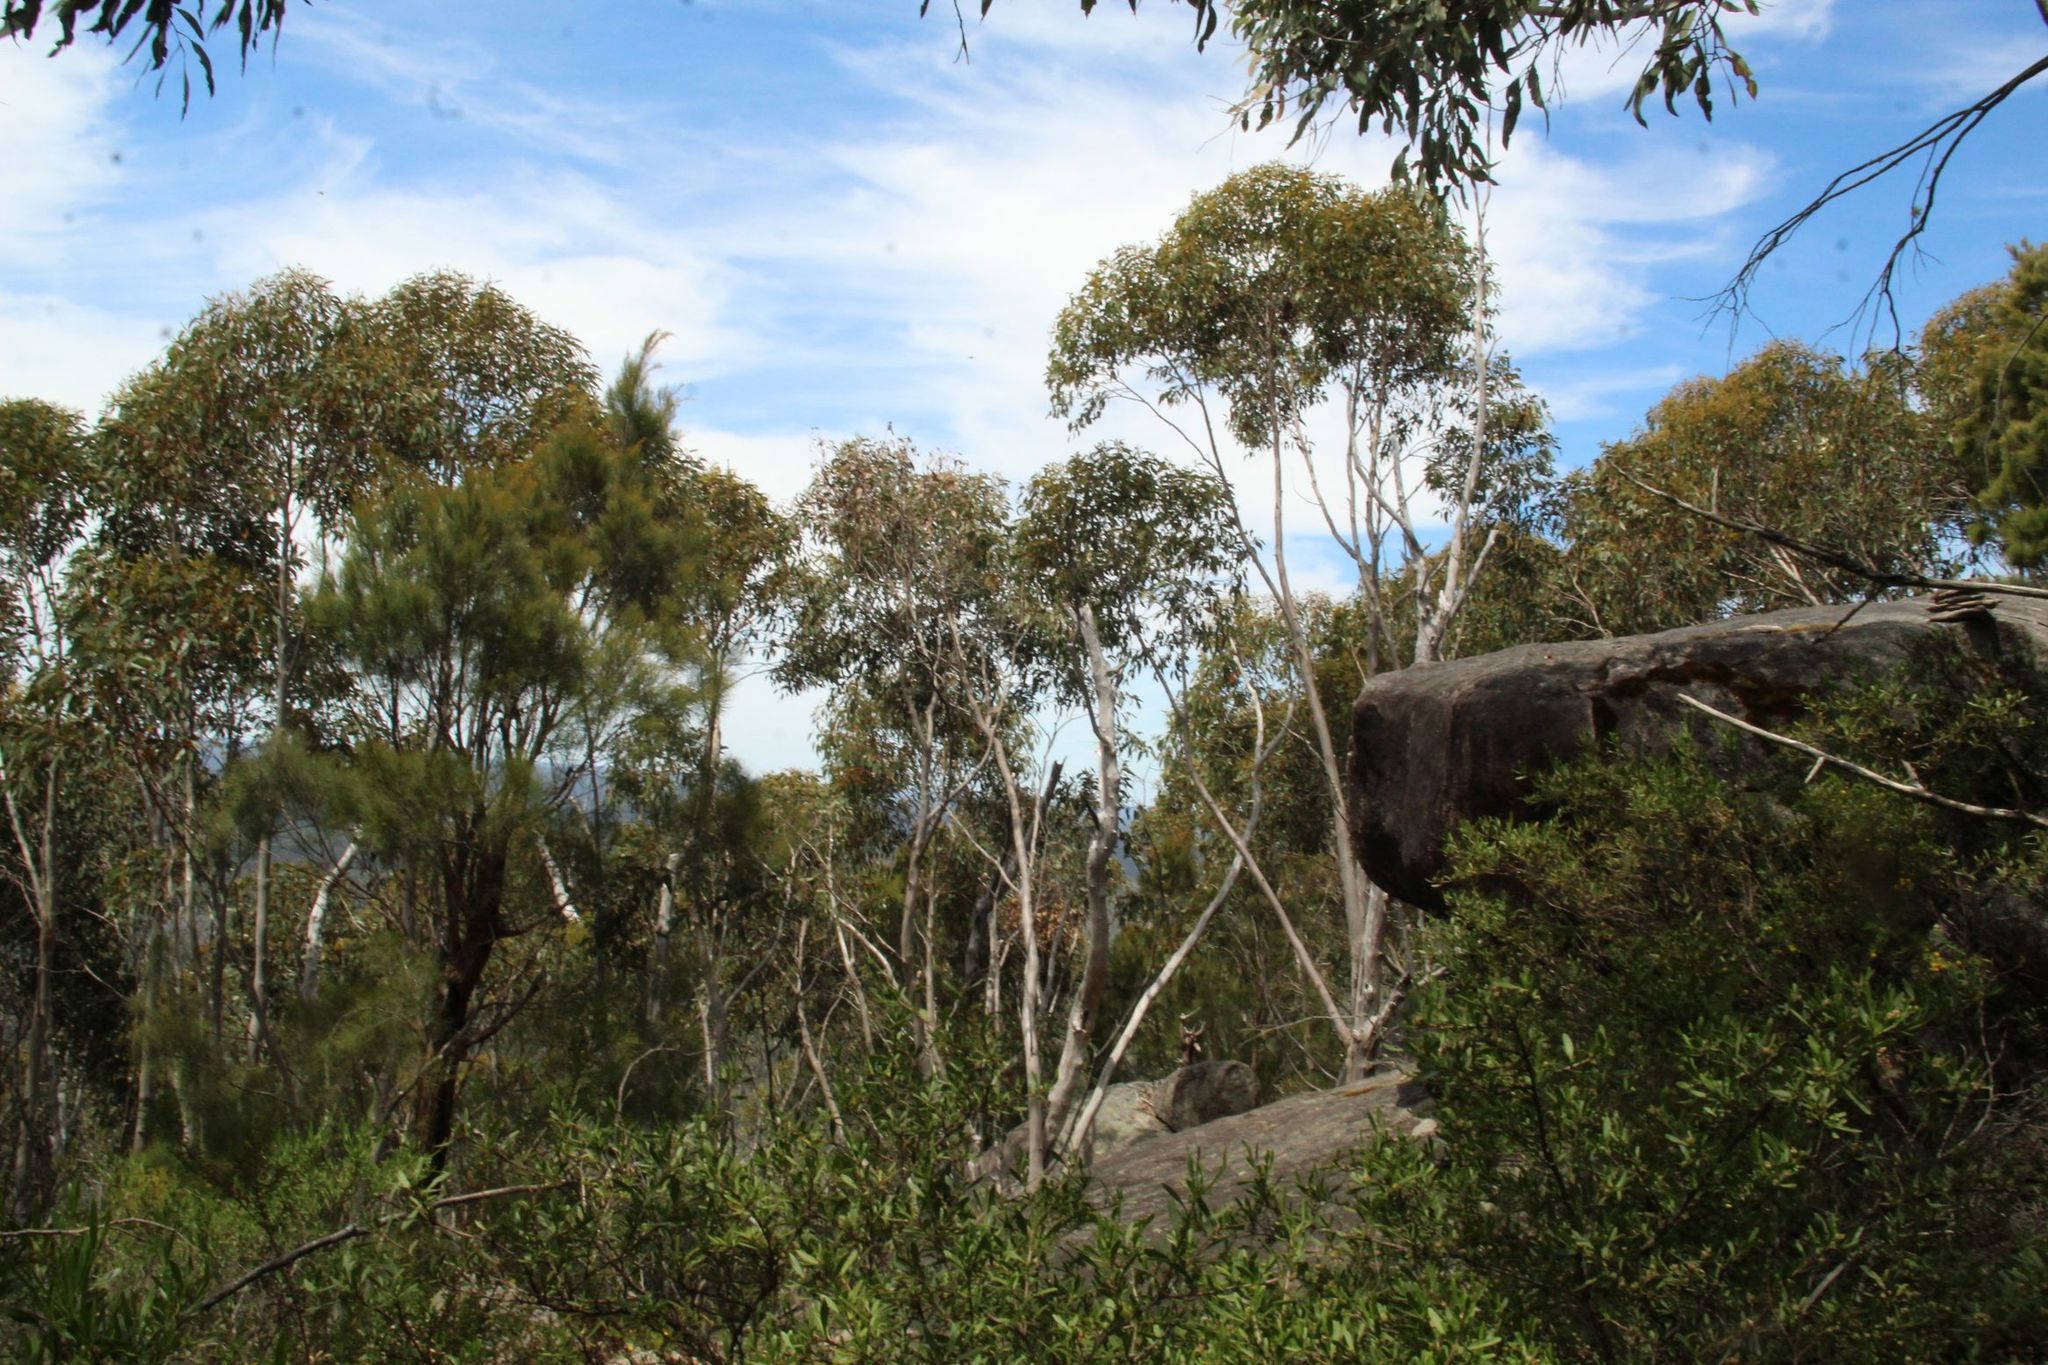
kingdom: Plantae
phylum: Tracheophyta
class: Magnoliopsida
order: Myrtales
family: Myrtaceae
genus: Eucalyptus
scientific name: Eucalyptus megacarpa
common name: Bullich
